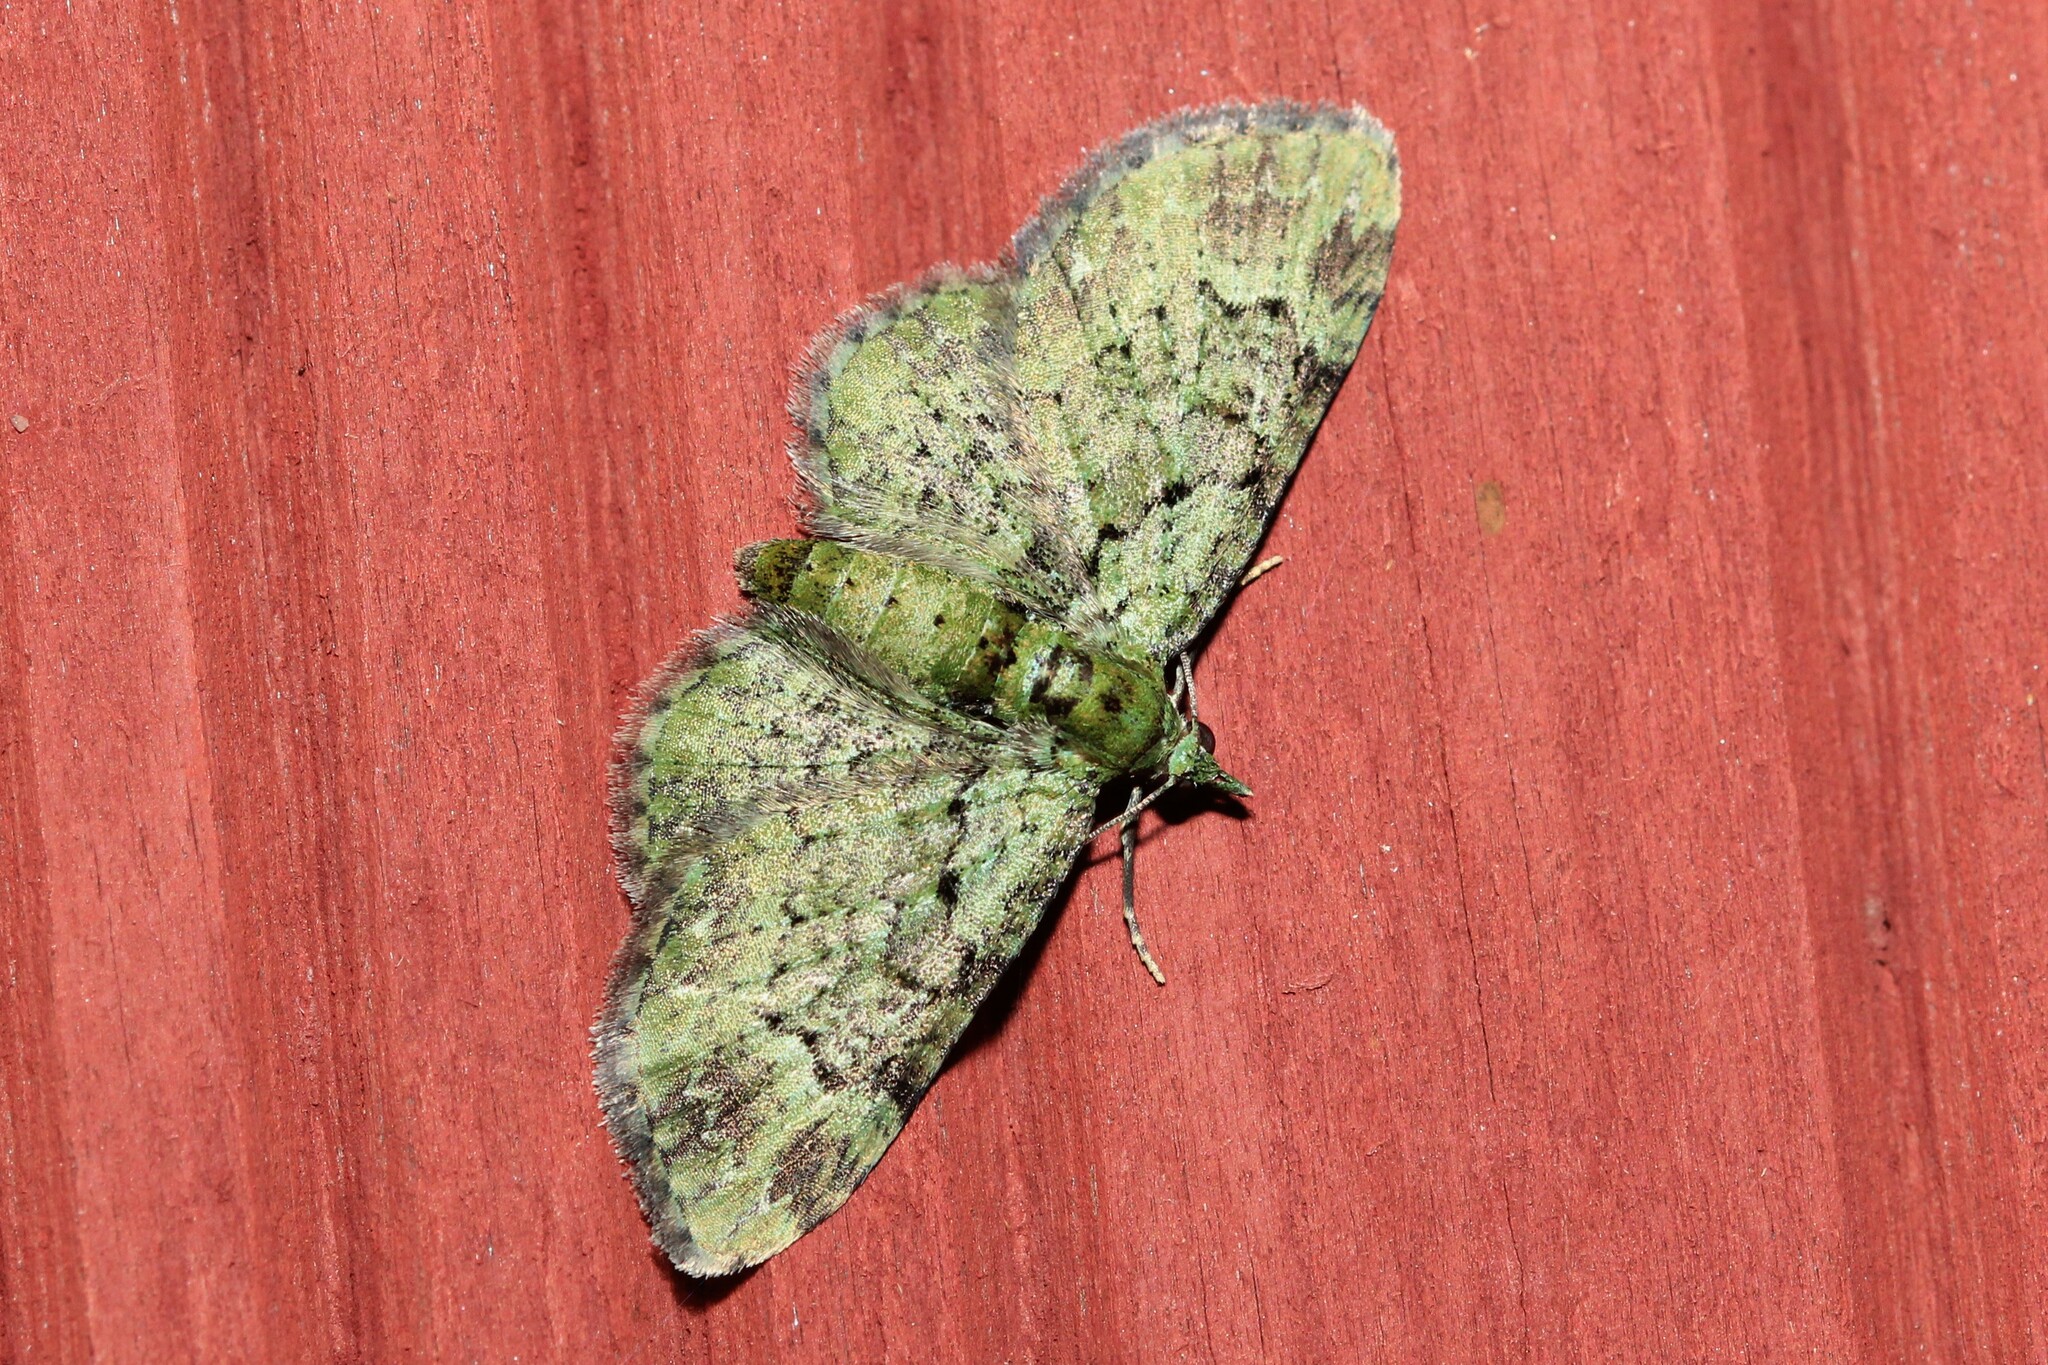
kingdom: Animalia
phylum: Arthropoda
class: Insecta
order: Lepidoptera
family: Geometridae
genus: Pasiphila
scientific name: Pasiphila rectangulata
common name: Green pug
